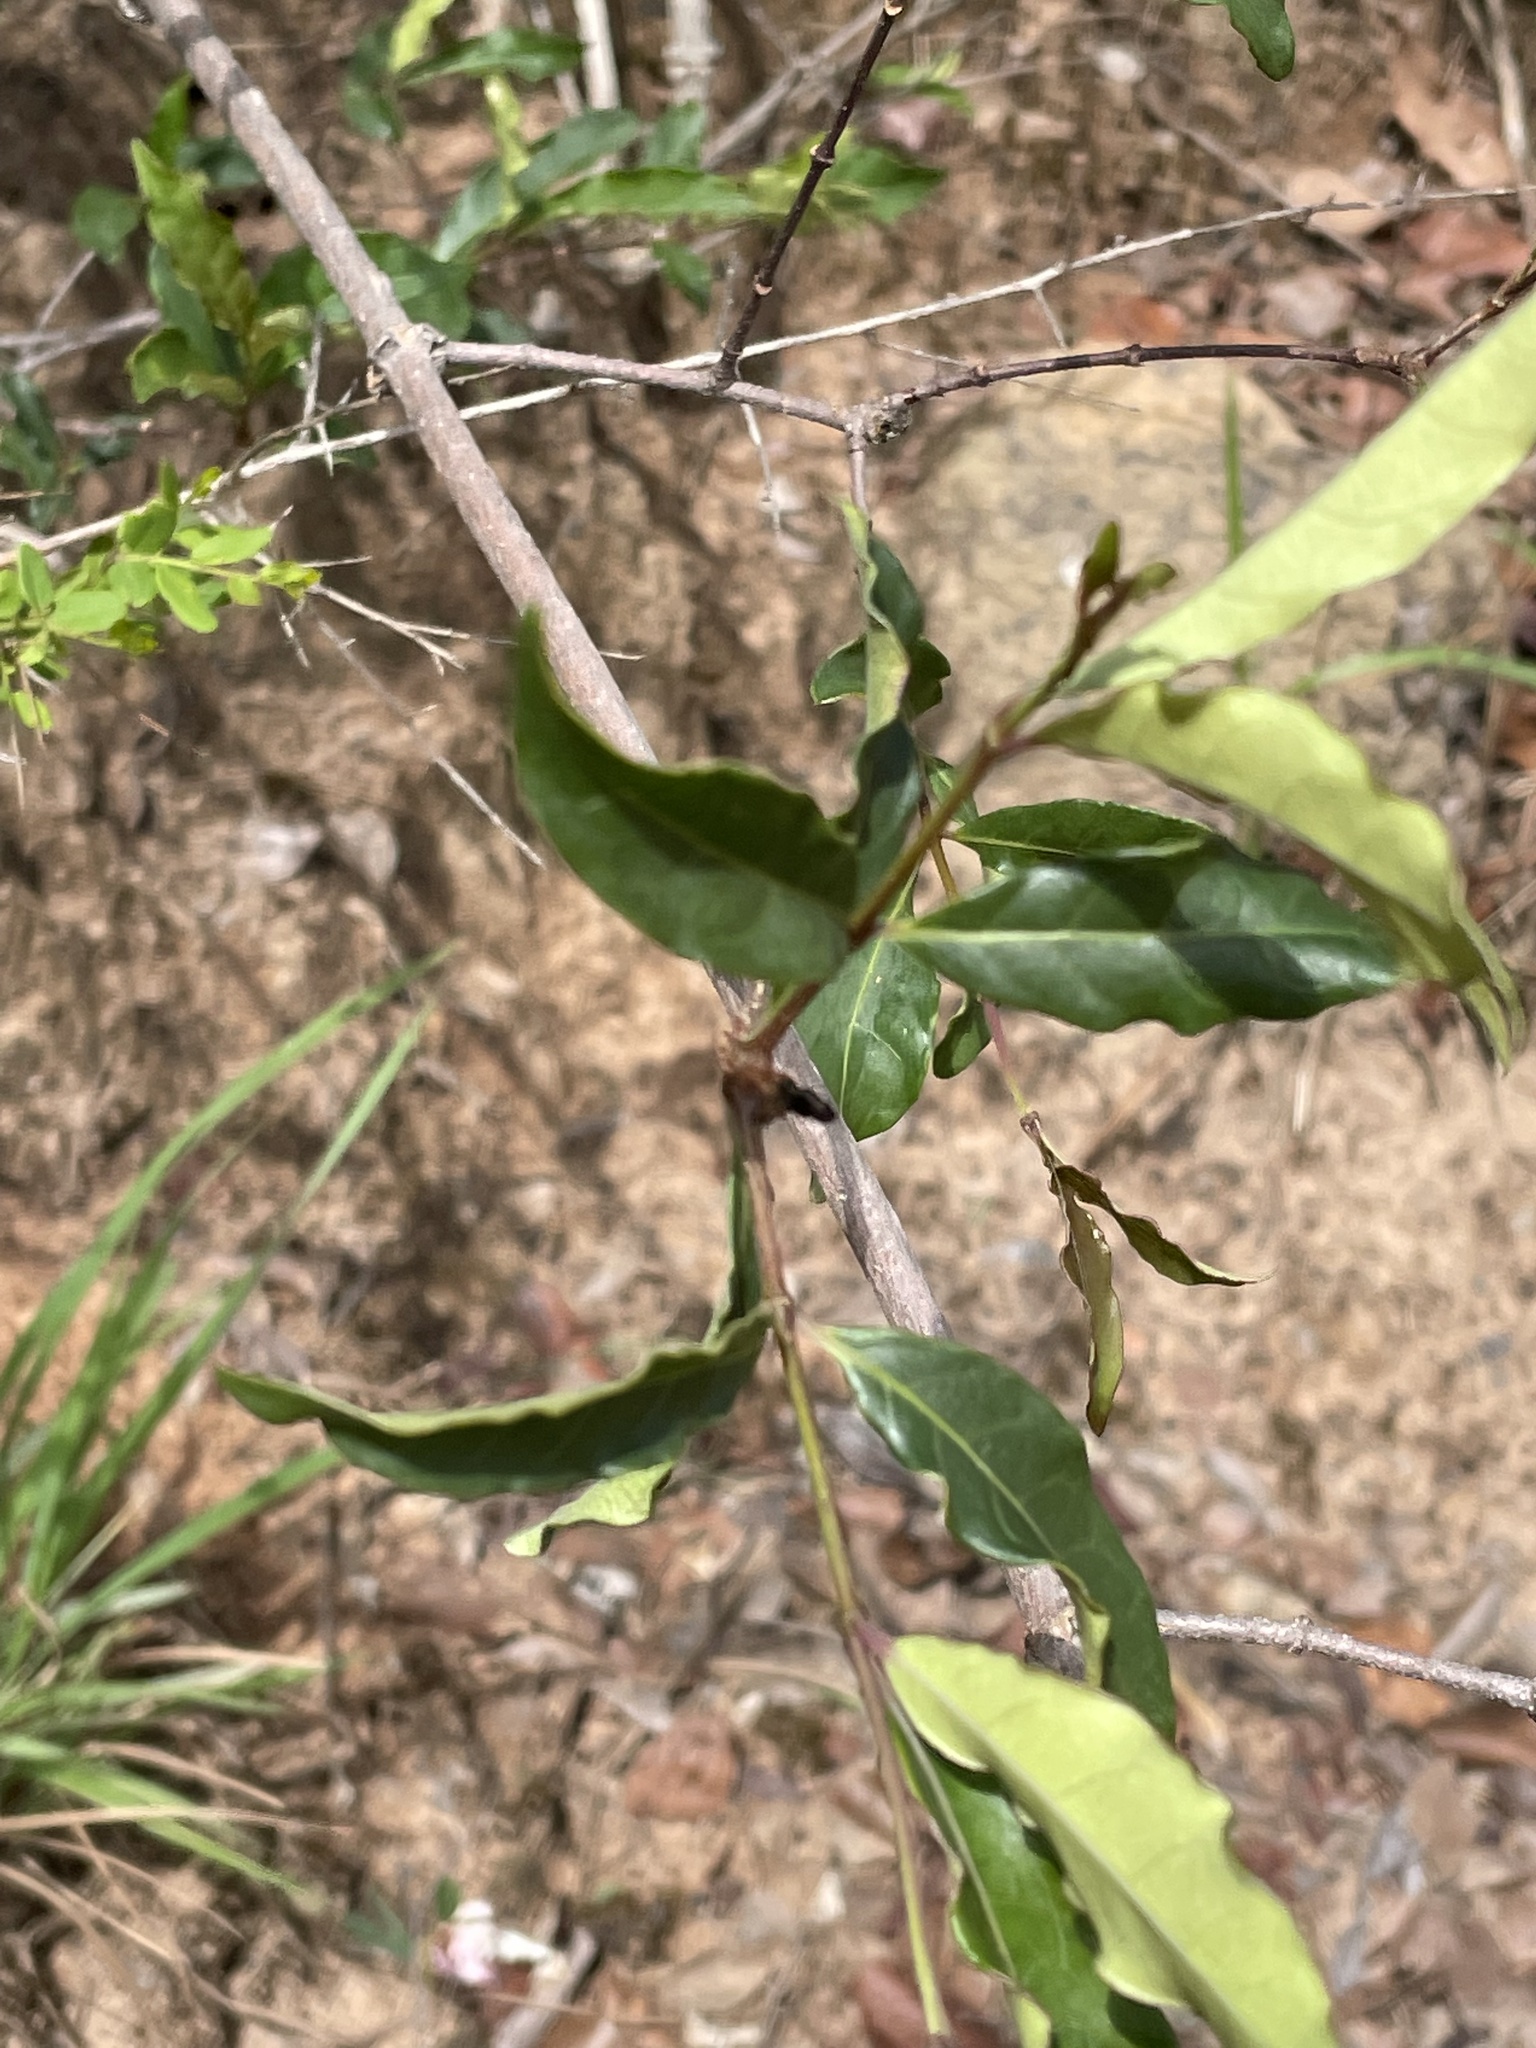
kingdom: Plantae
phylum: Tracheophyta
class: Magnoliopsida
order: Gentianales
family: Apocynaceae
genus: Strophanthus
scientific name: Strophanthus welwitschii
